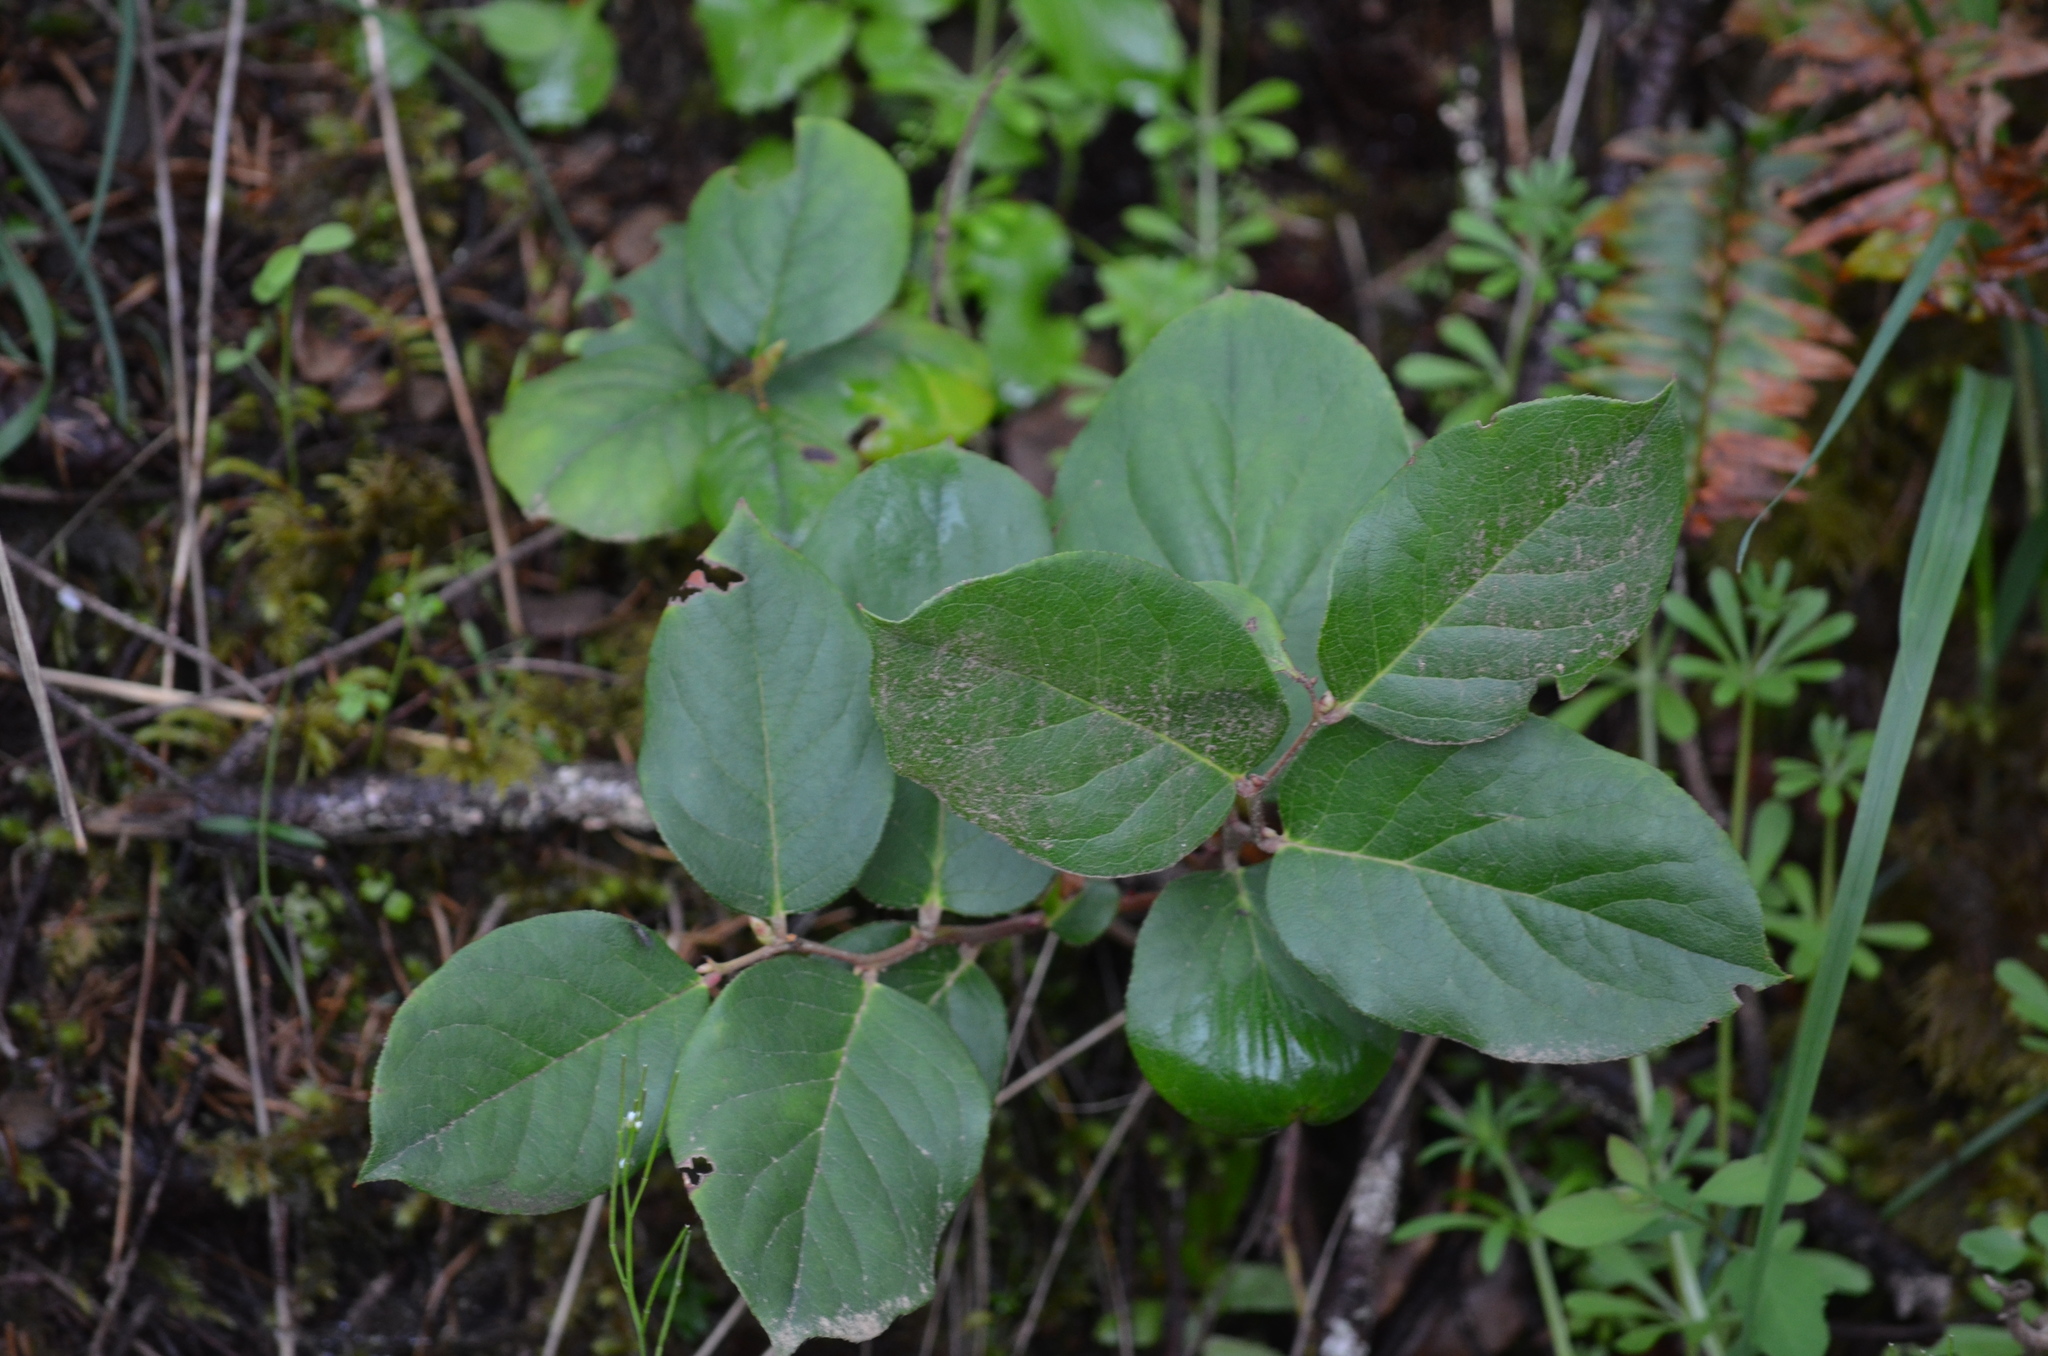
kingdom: Plantae
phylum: Tracheophyta
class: Magnoliopsida
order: Ericales
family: Ericaceae
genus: Gaultheria
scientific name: Gaultheria shallon
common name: Shallon
